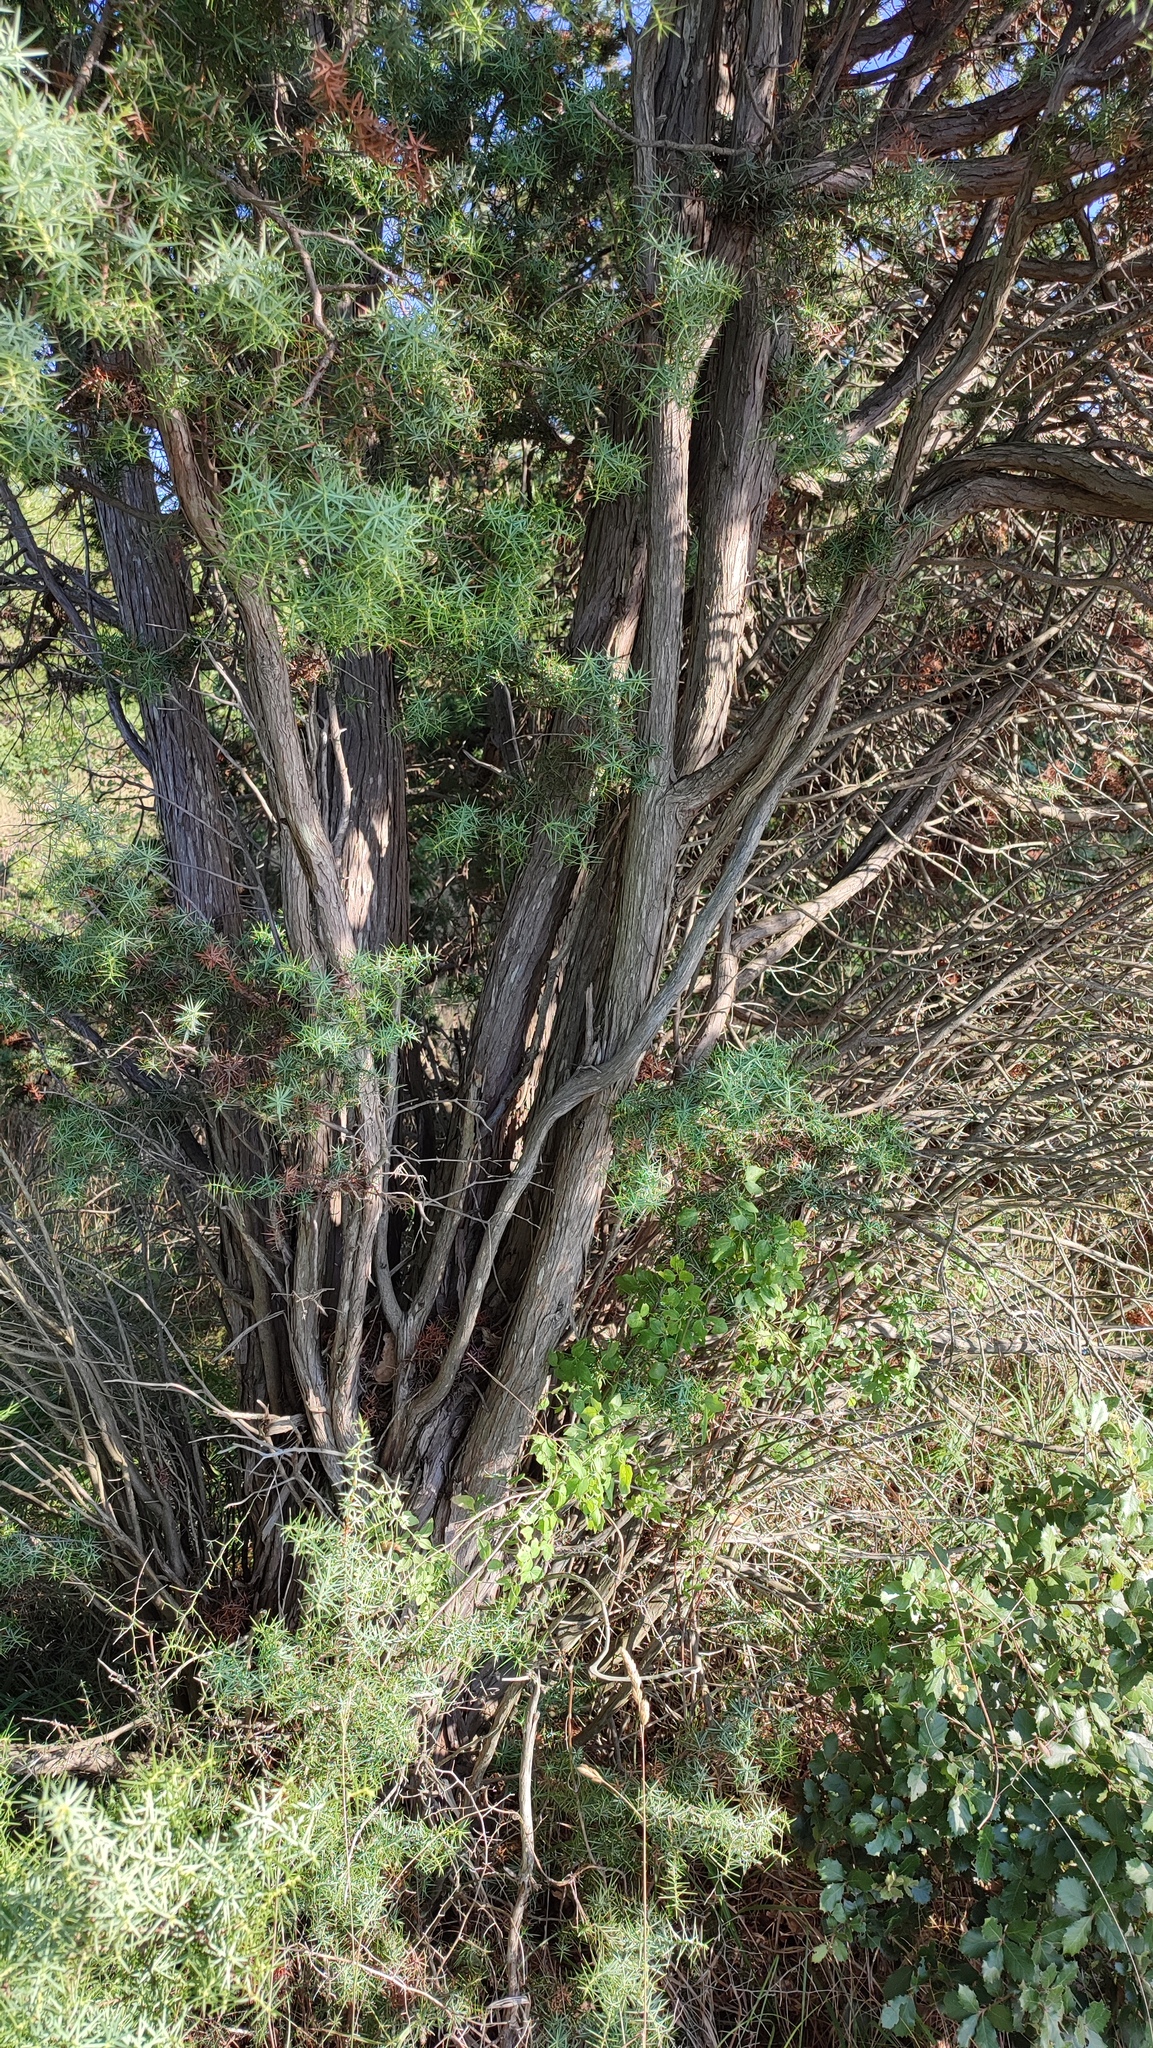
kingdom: Plantae
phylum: Tracheophyta
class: Pinopsida
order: Pinales
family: Cupressaceae
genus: Juniperus
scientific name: Juniperus oxycedrus
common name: Prickly juniper
